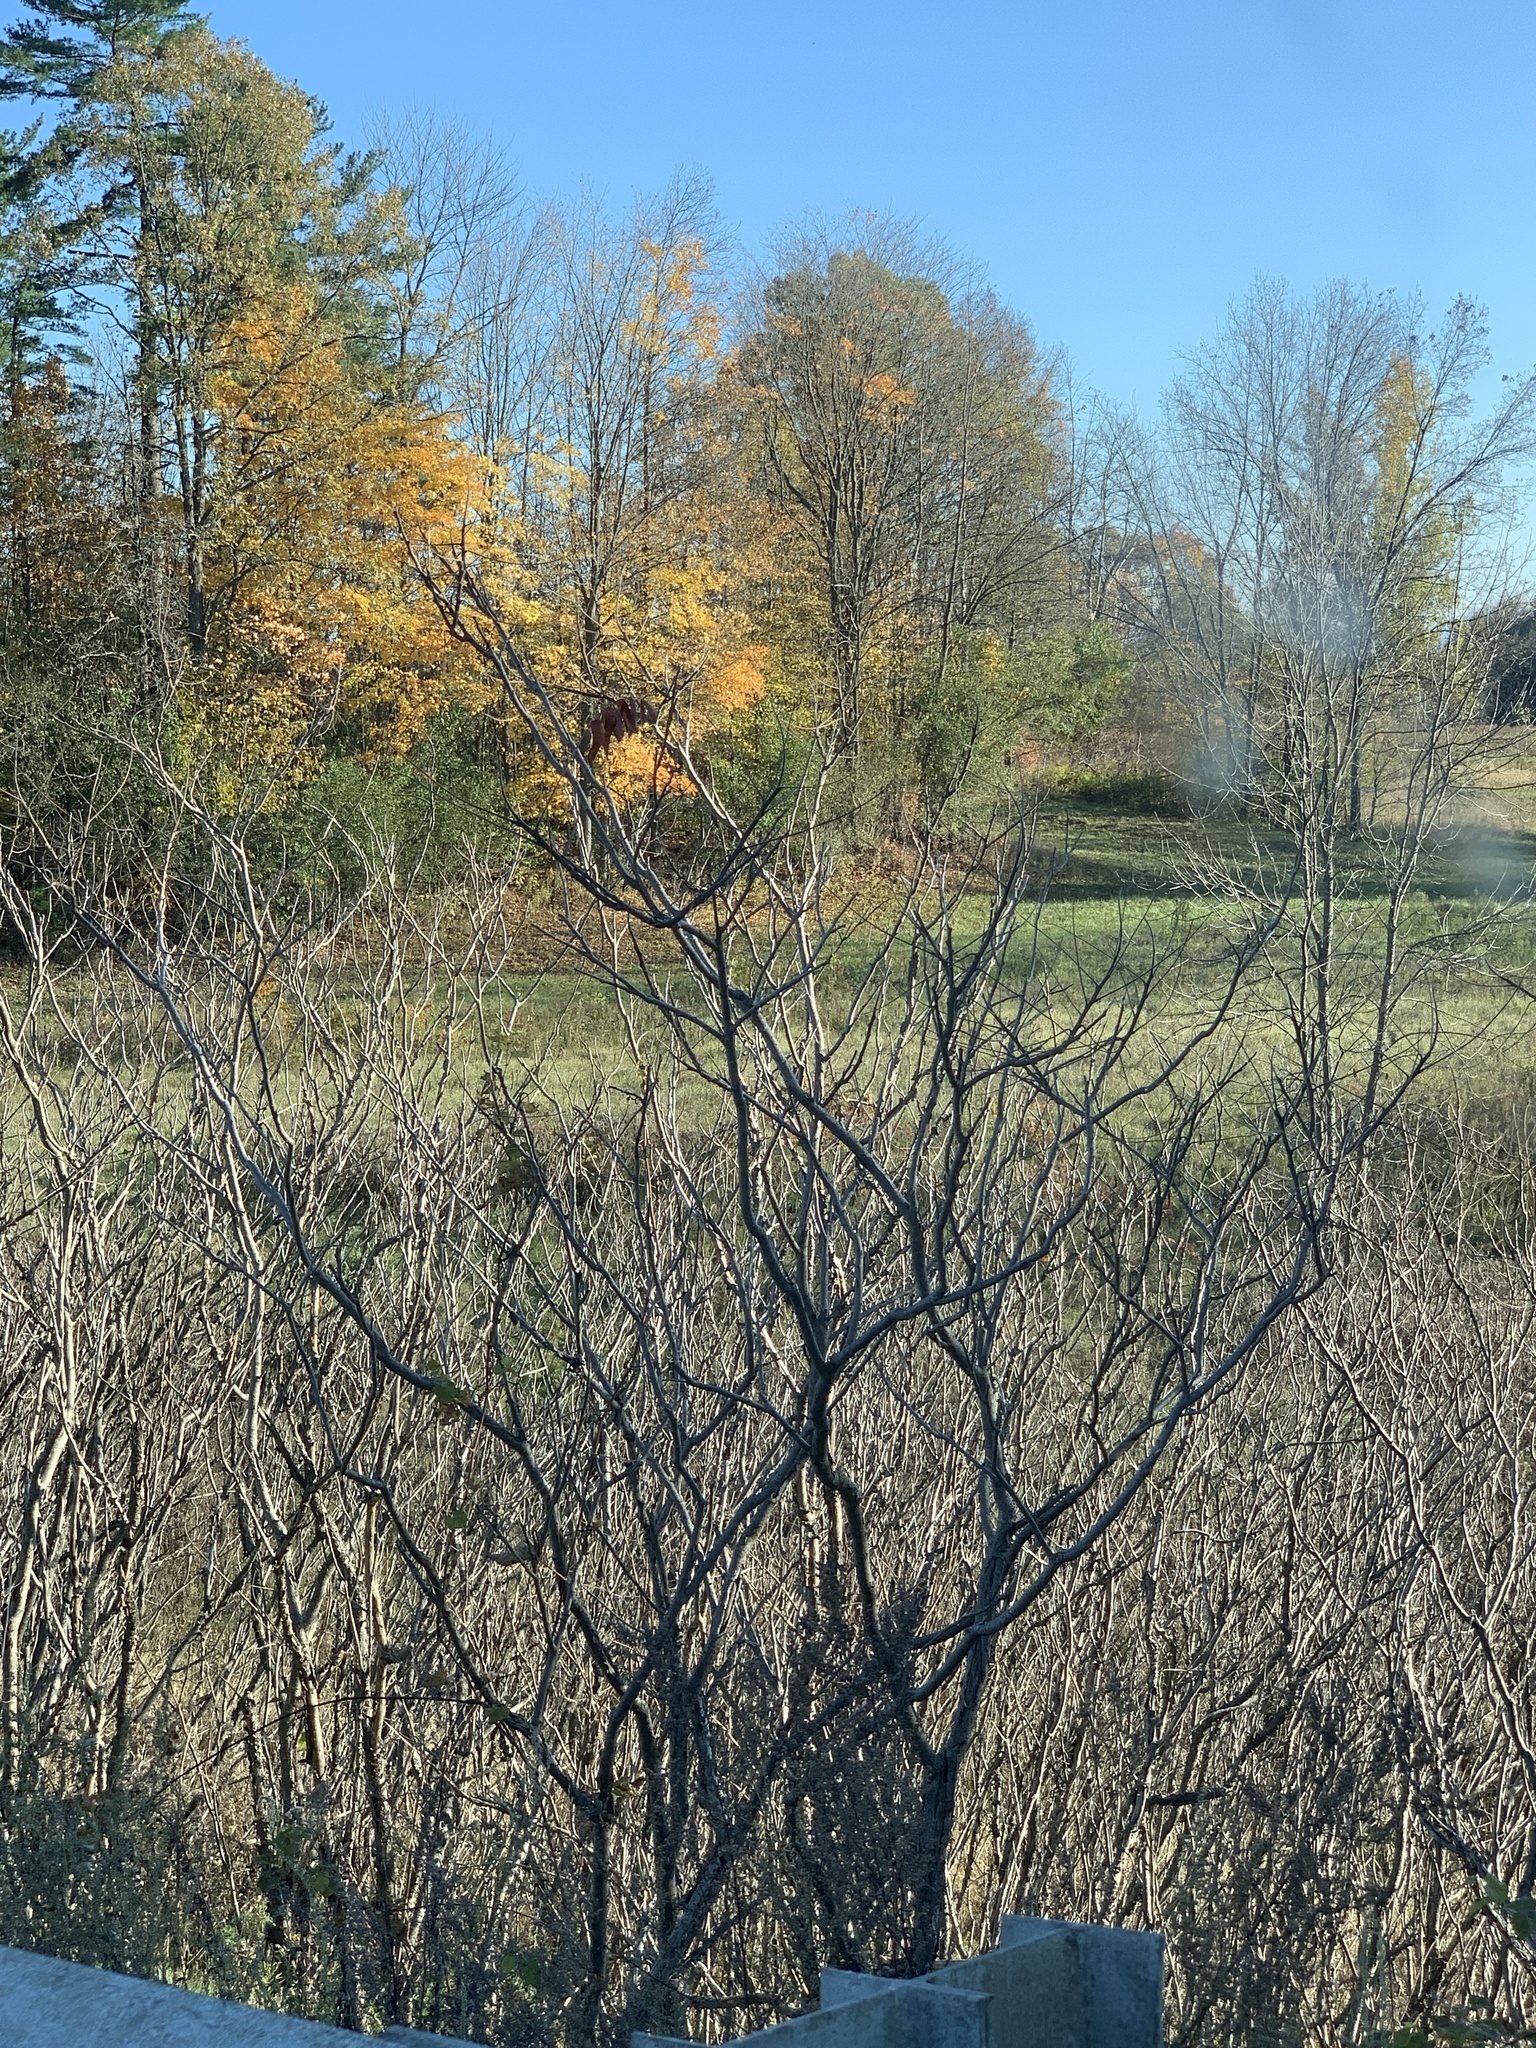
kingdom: Plantae
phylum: Tracheophyta
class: Magnoliopsida
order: Sapindales
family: Anacardiaceae
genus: Rhus
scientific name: Rhus typhina
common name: Staghorn sumac
